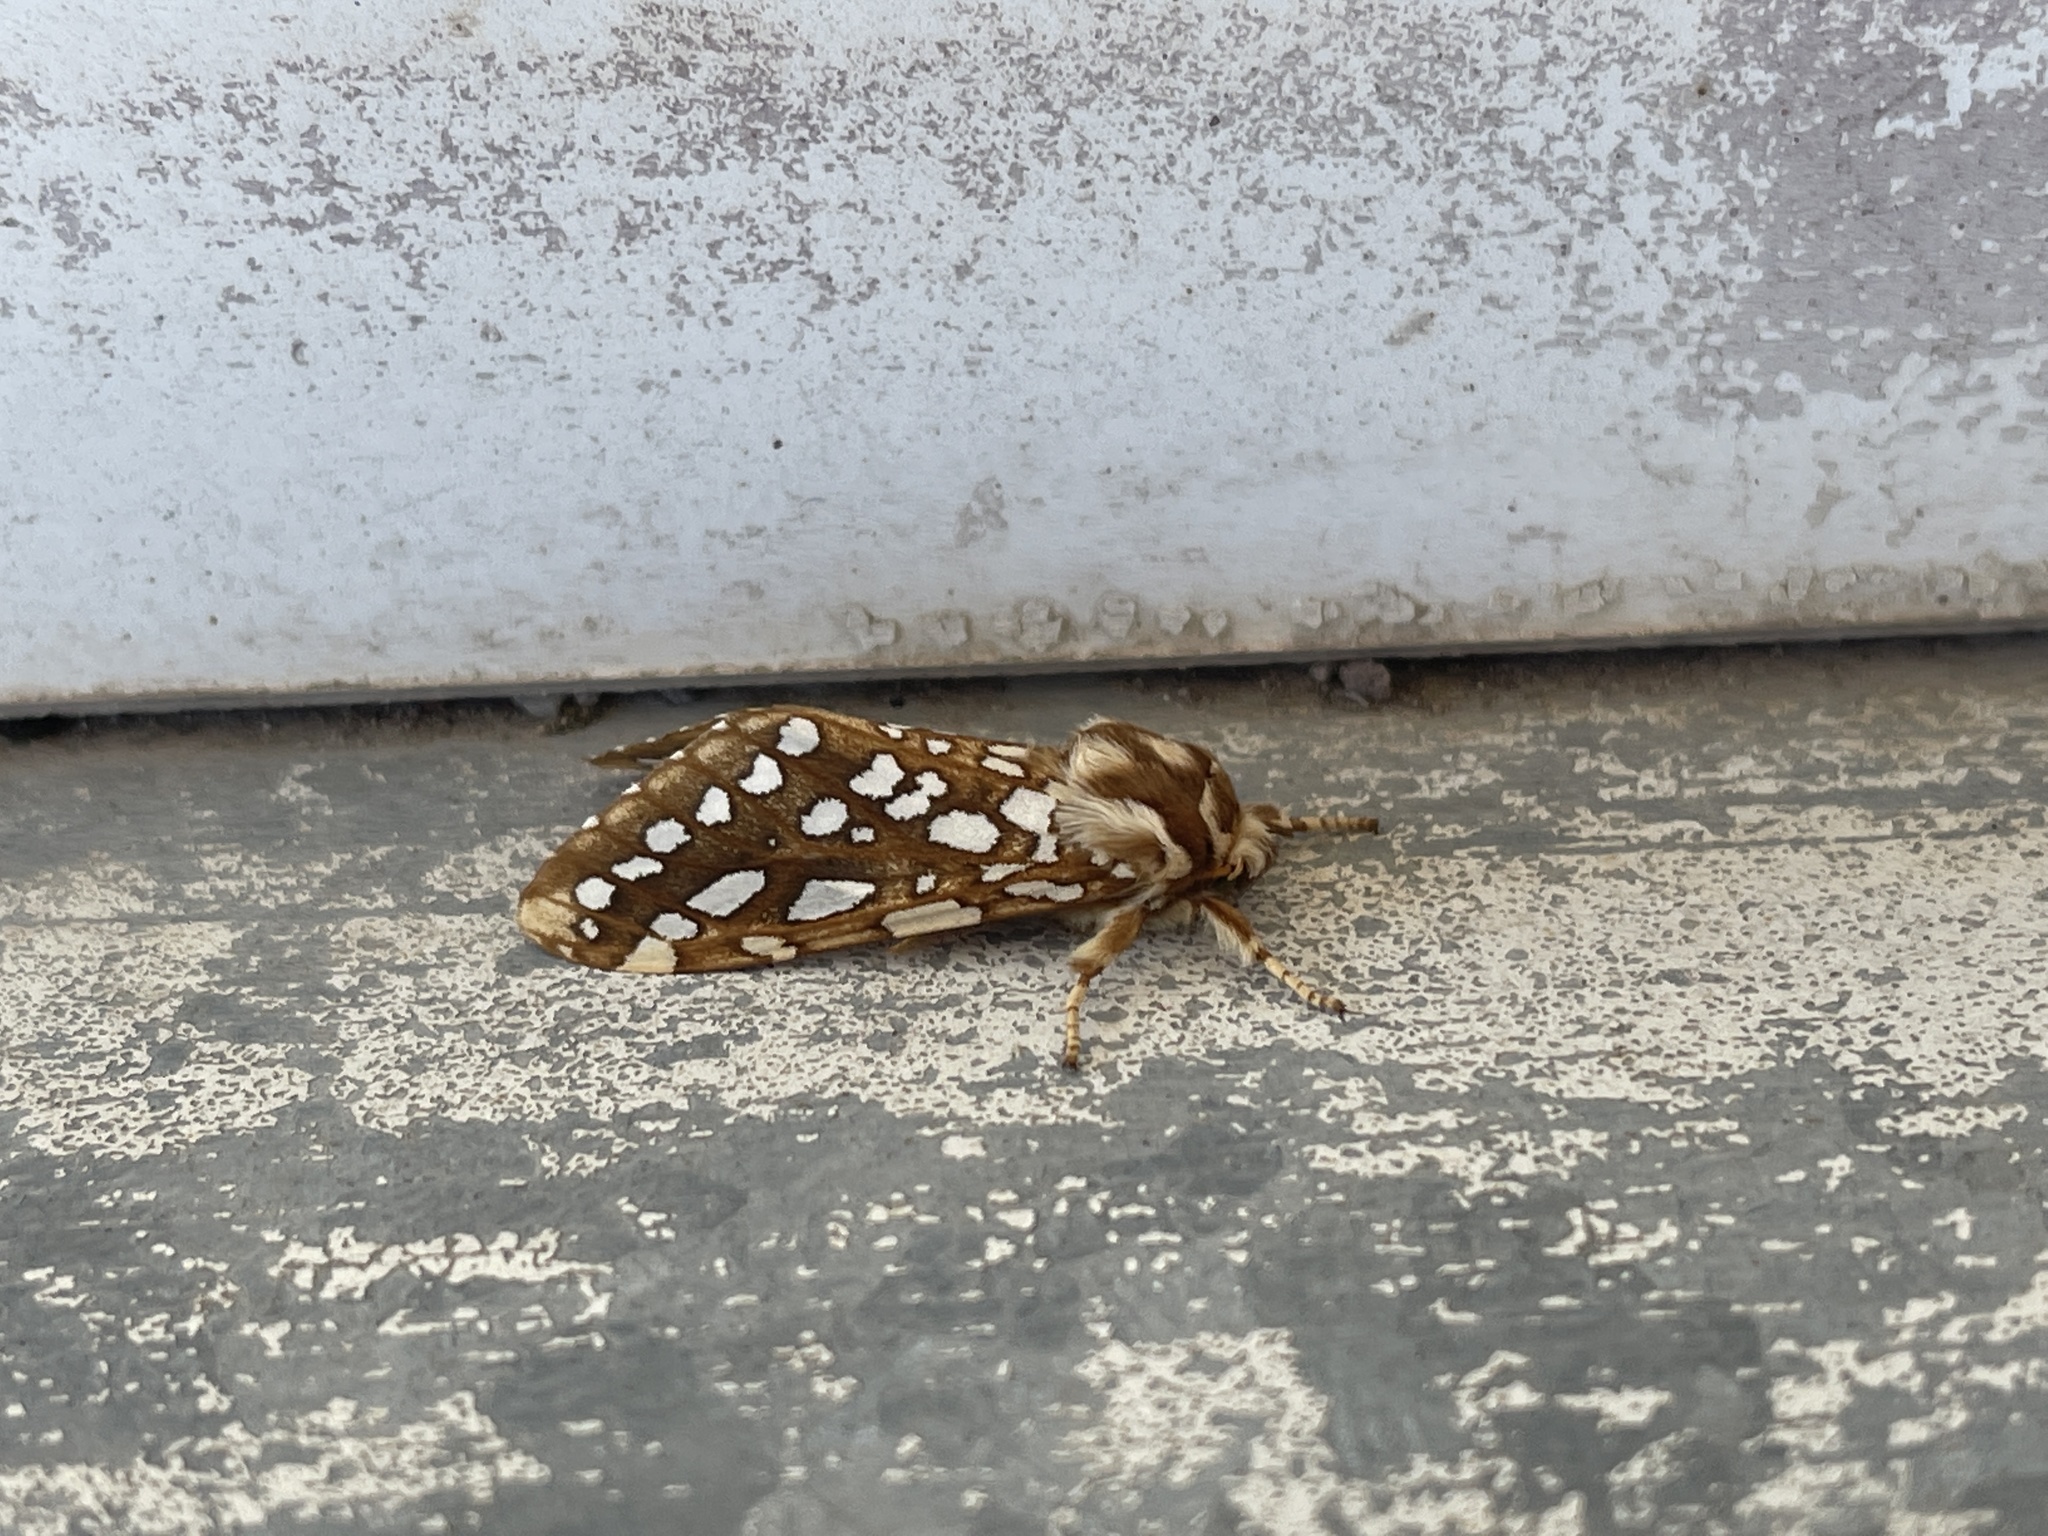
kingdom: Animalia
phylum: Arthropoda
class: Insecta
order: Lepidoptera
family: Erebidae
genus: Lophocampa
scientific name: Lophocampa ingens
